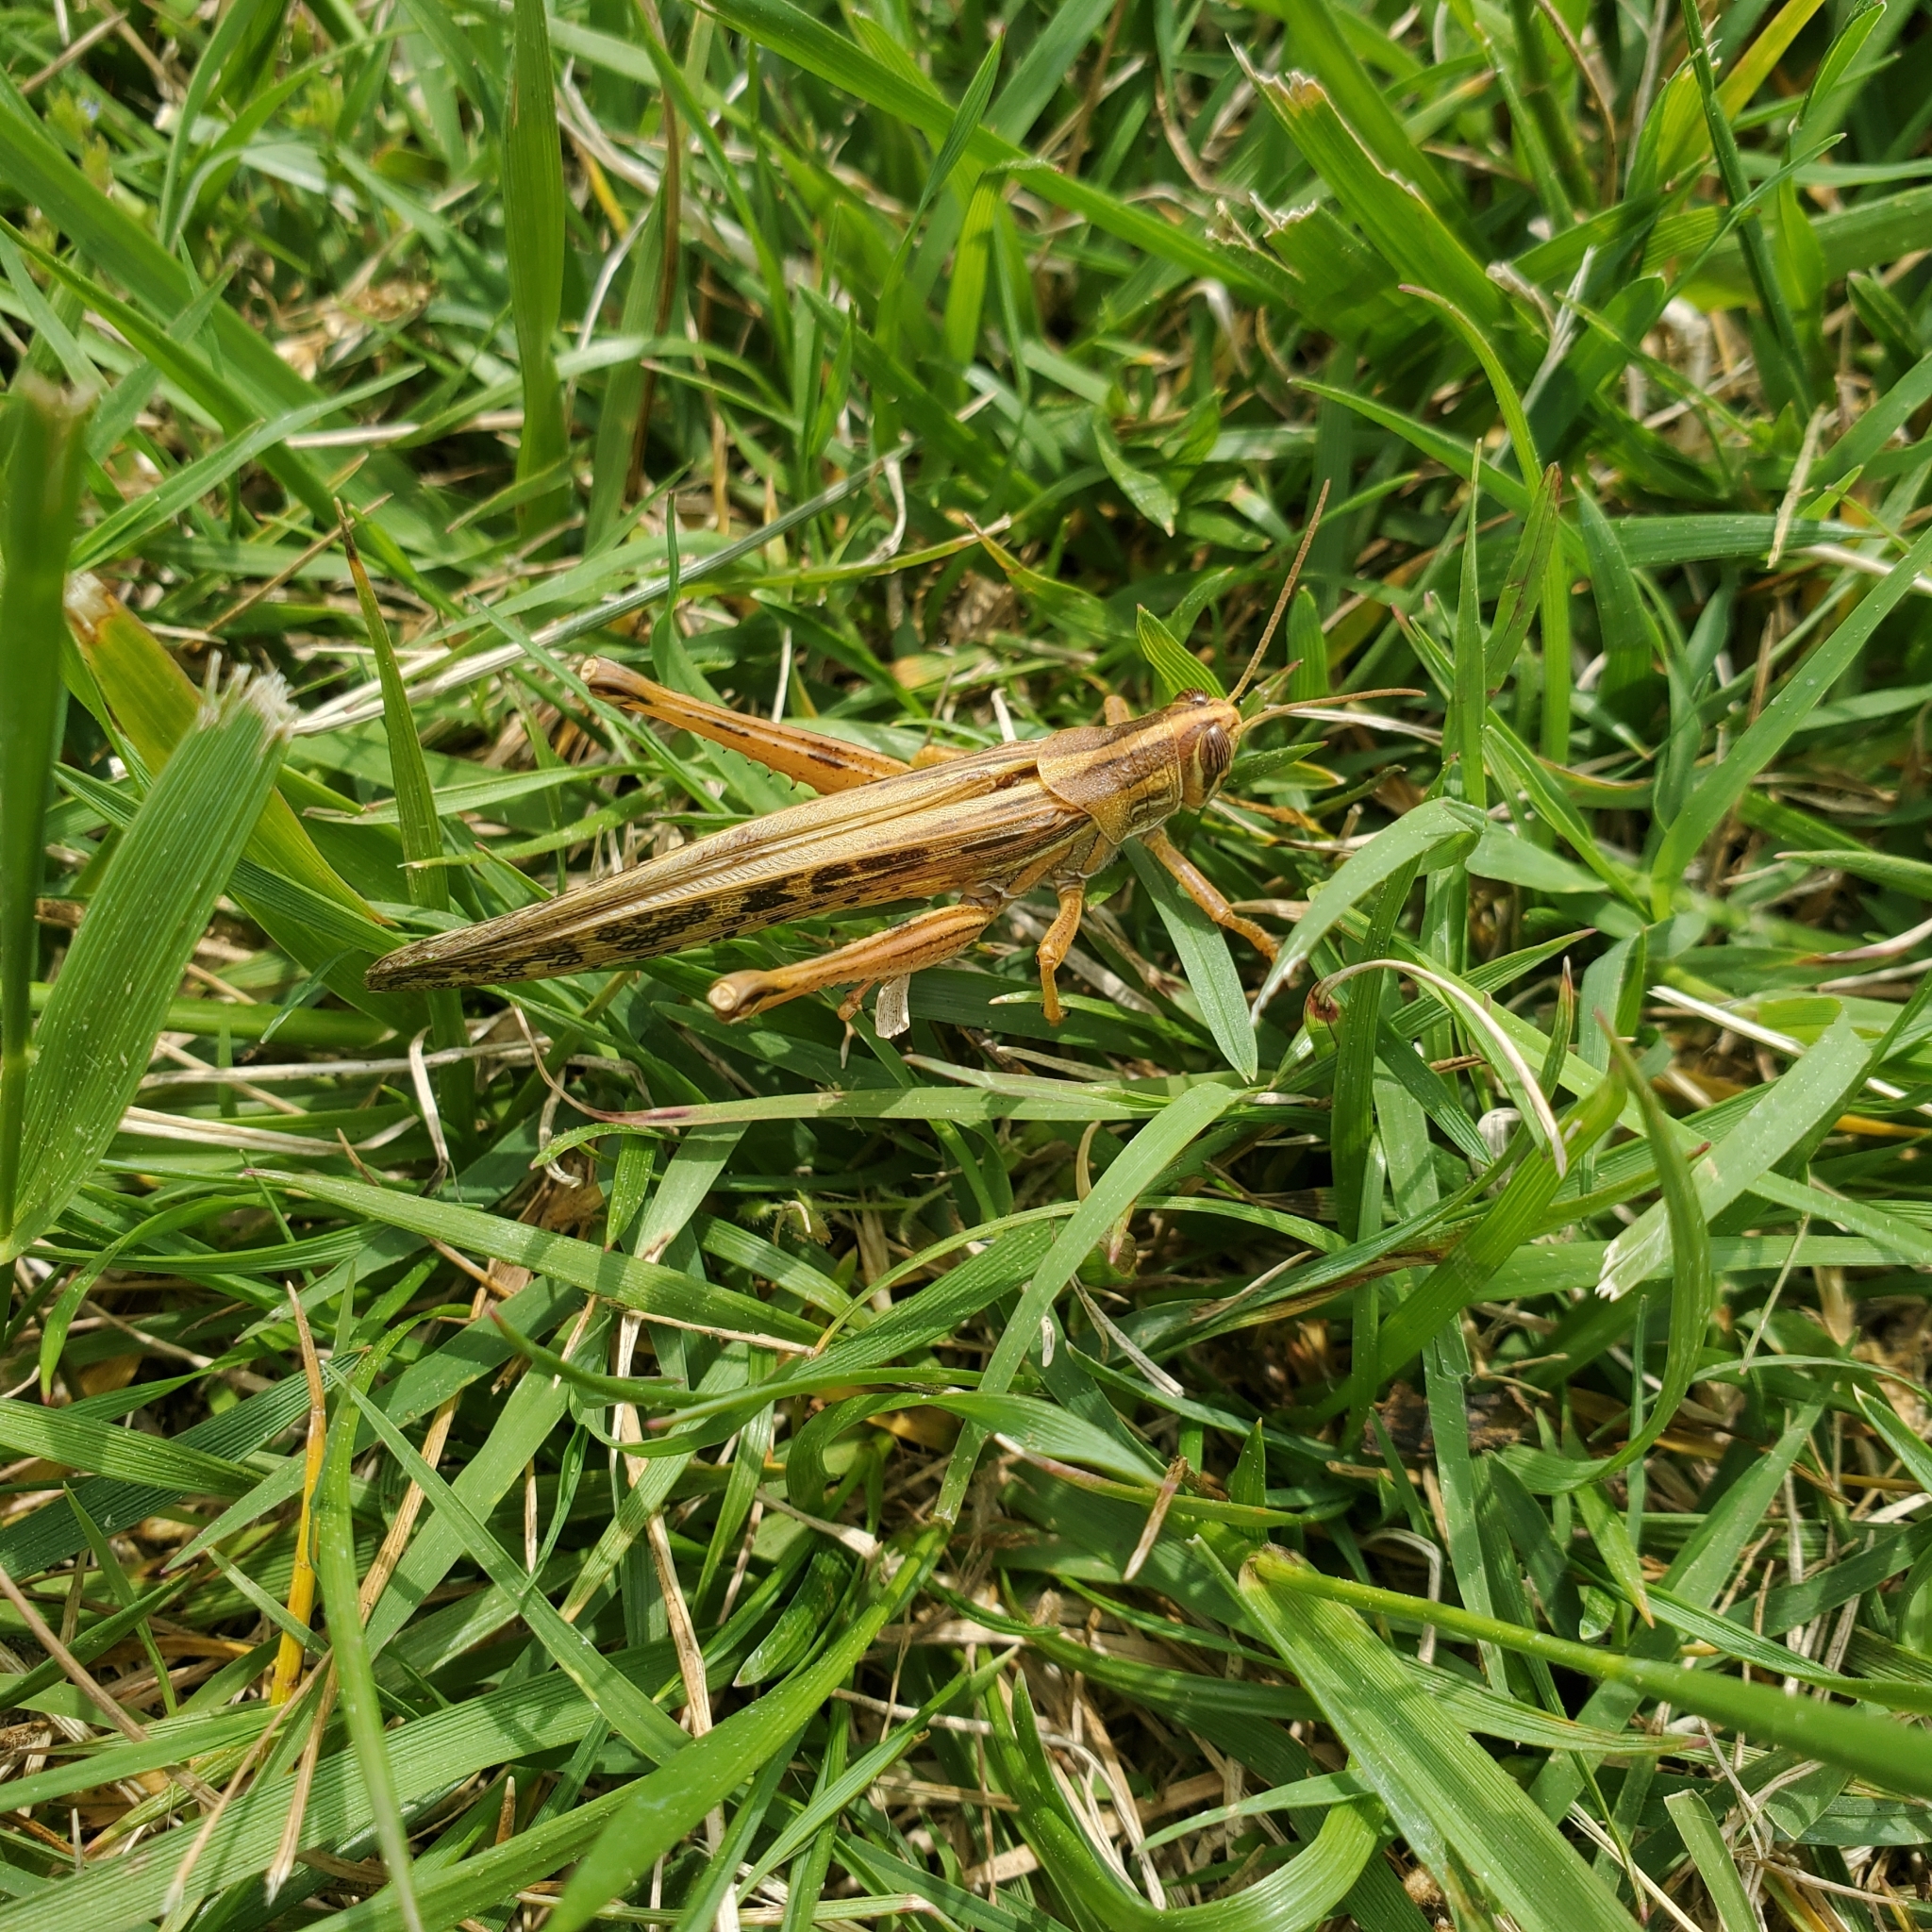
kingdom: Animalia
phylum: Arthropoda
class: Insecta
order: Orthoptera
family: Acrididae
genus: Schistocerca
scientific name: Schistocerca americana
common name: American bird locust
